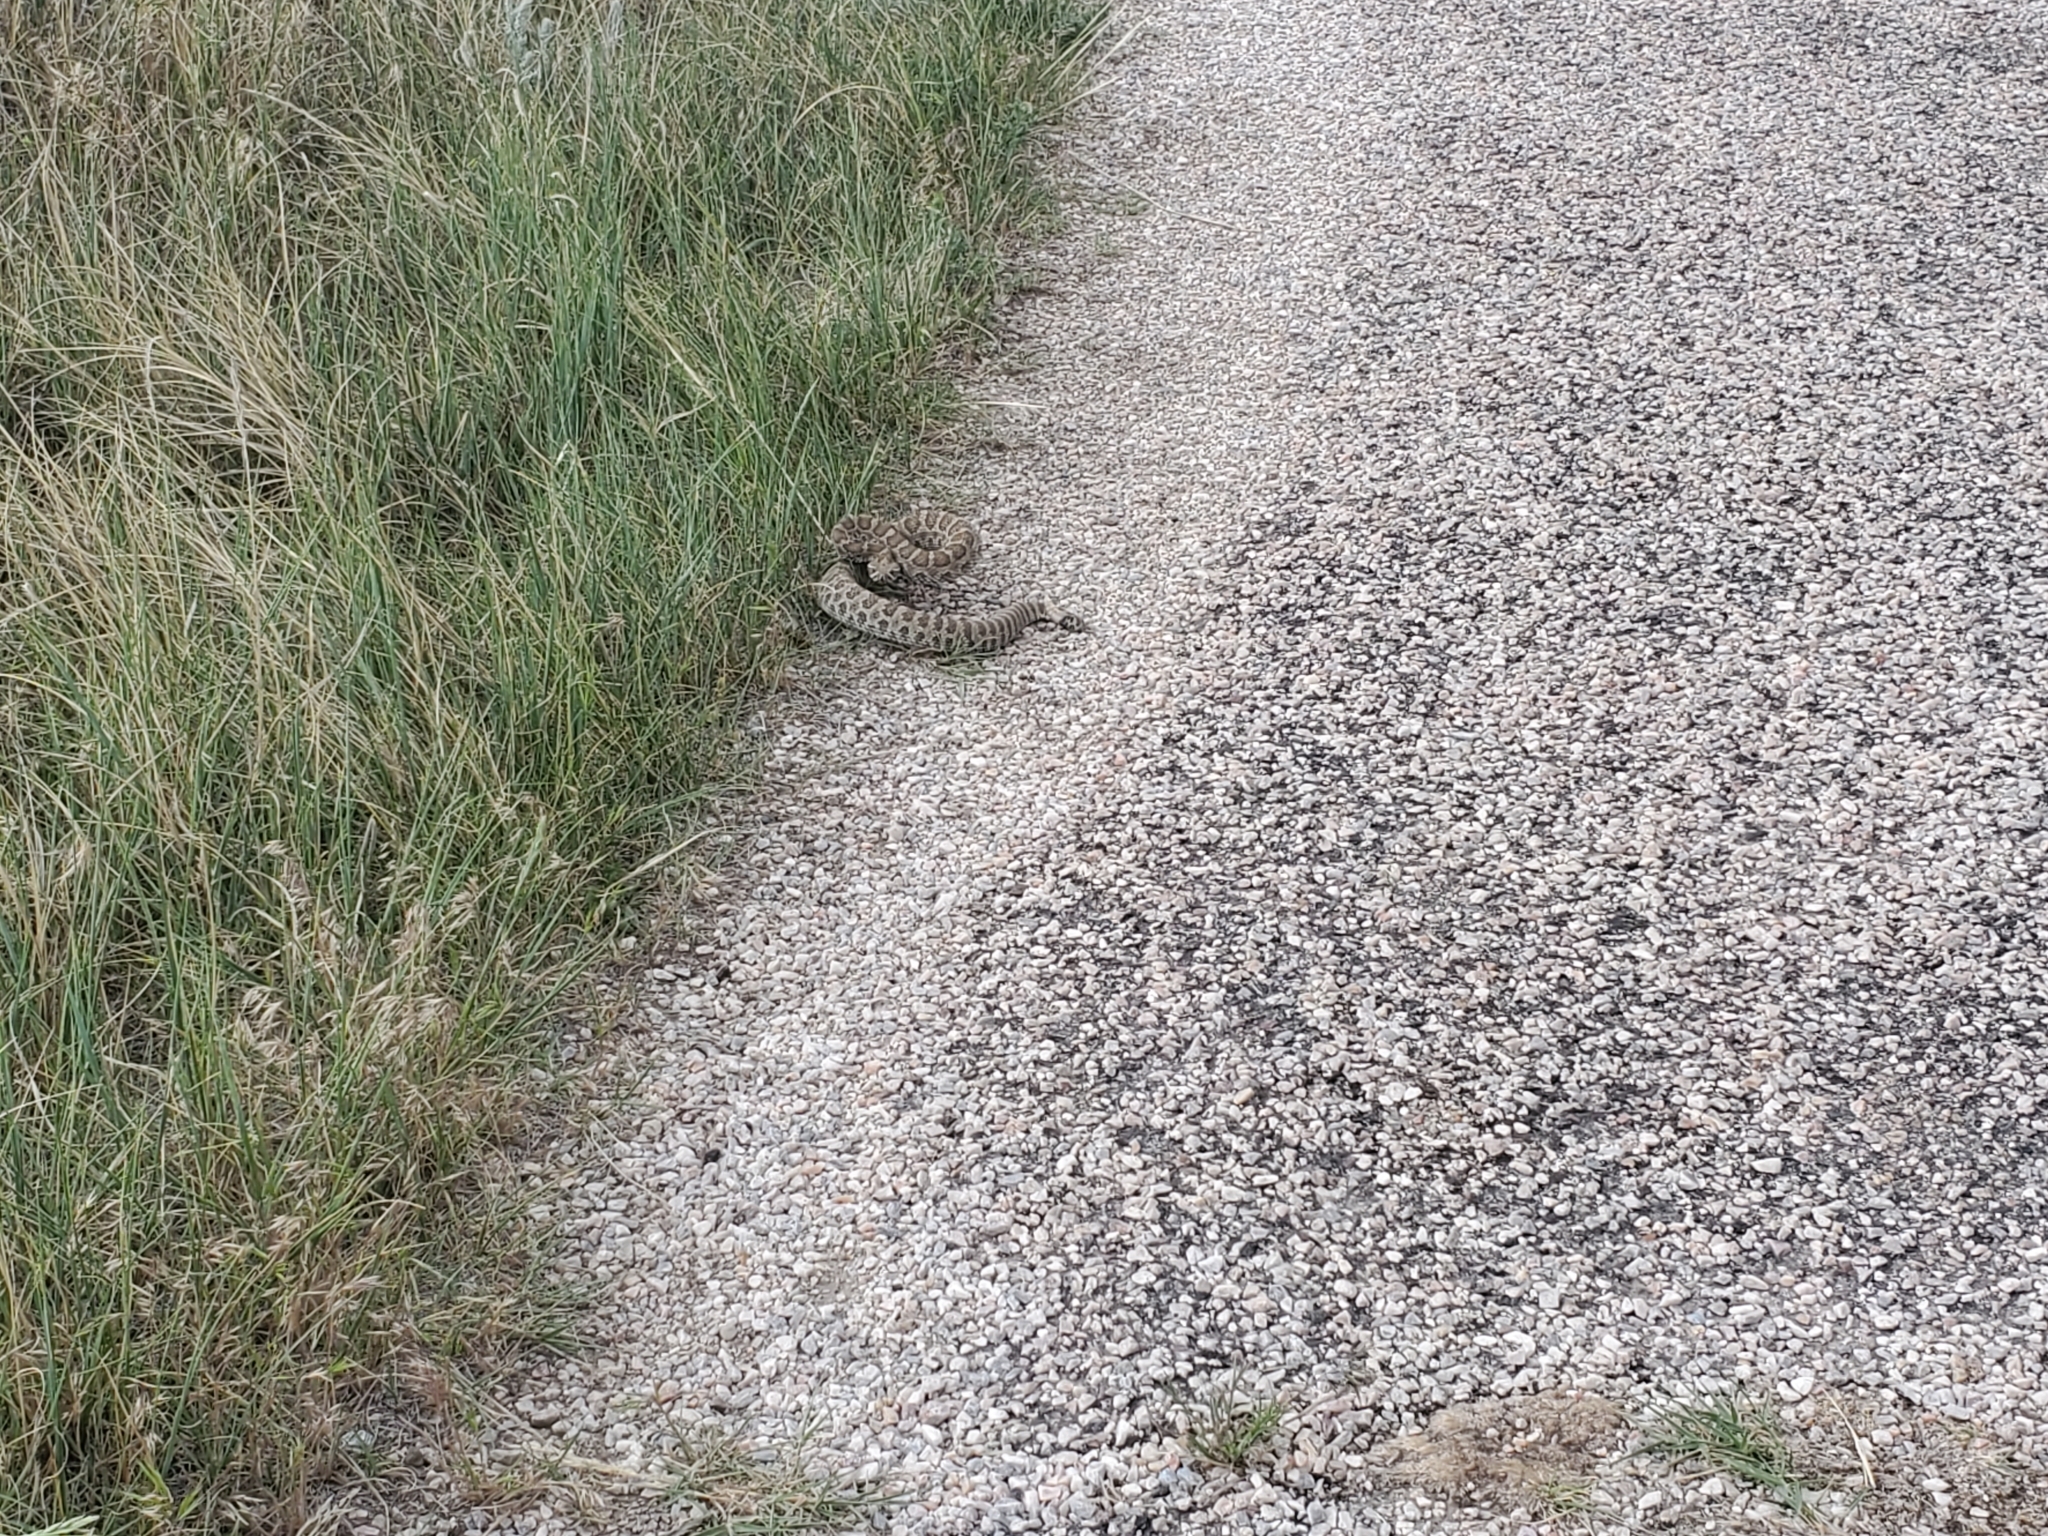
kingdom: Animalia
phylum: Chordata
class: Squamata
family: Viperidae
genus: Crotalus
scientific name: Crotalus viridis
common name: Prairie rattlesnake
